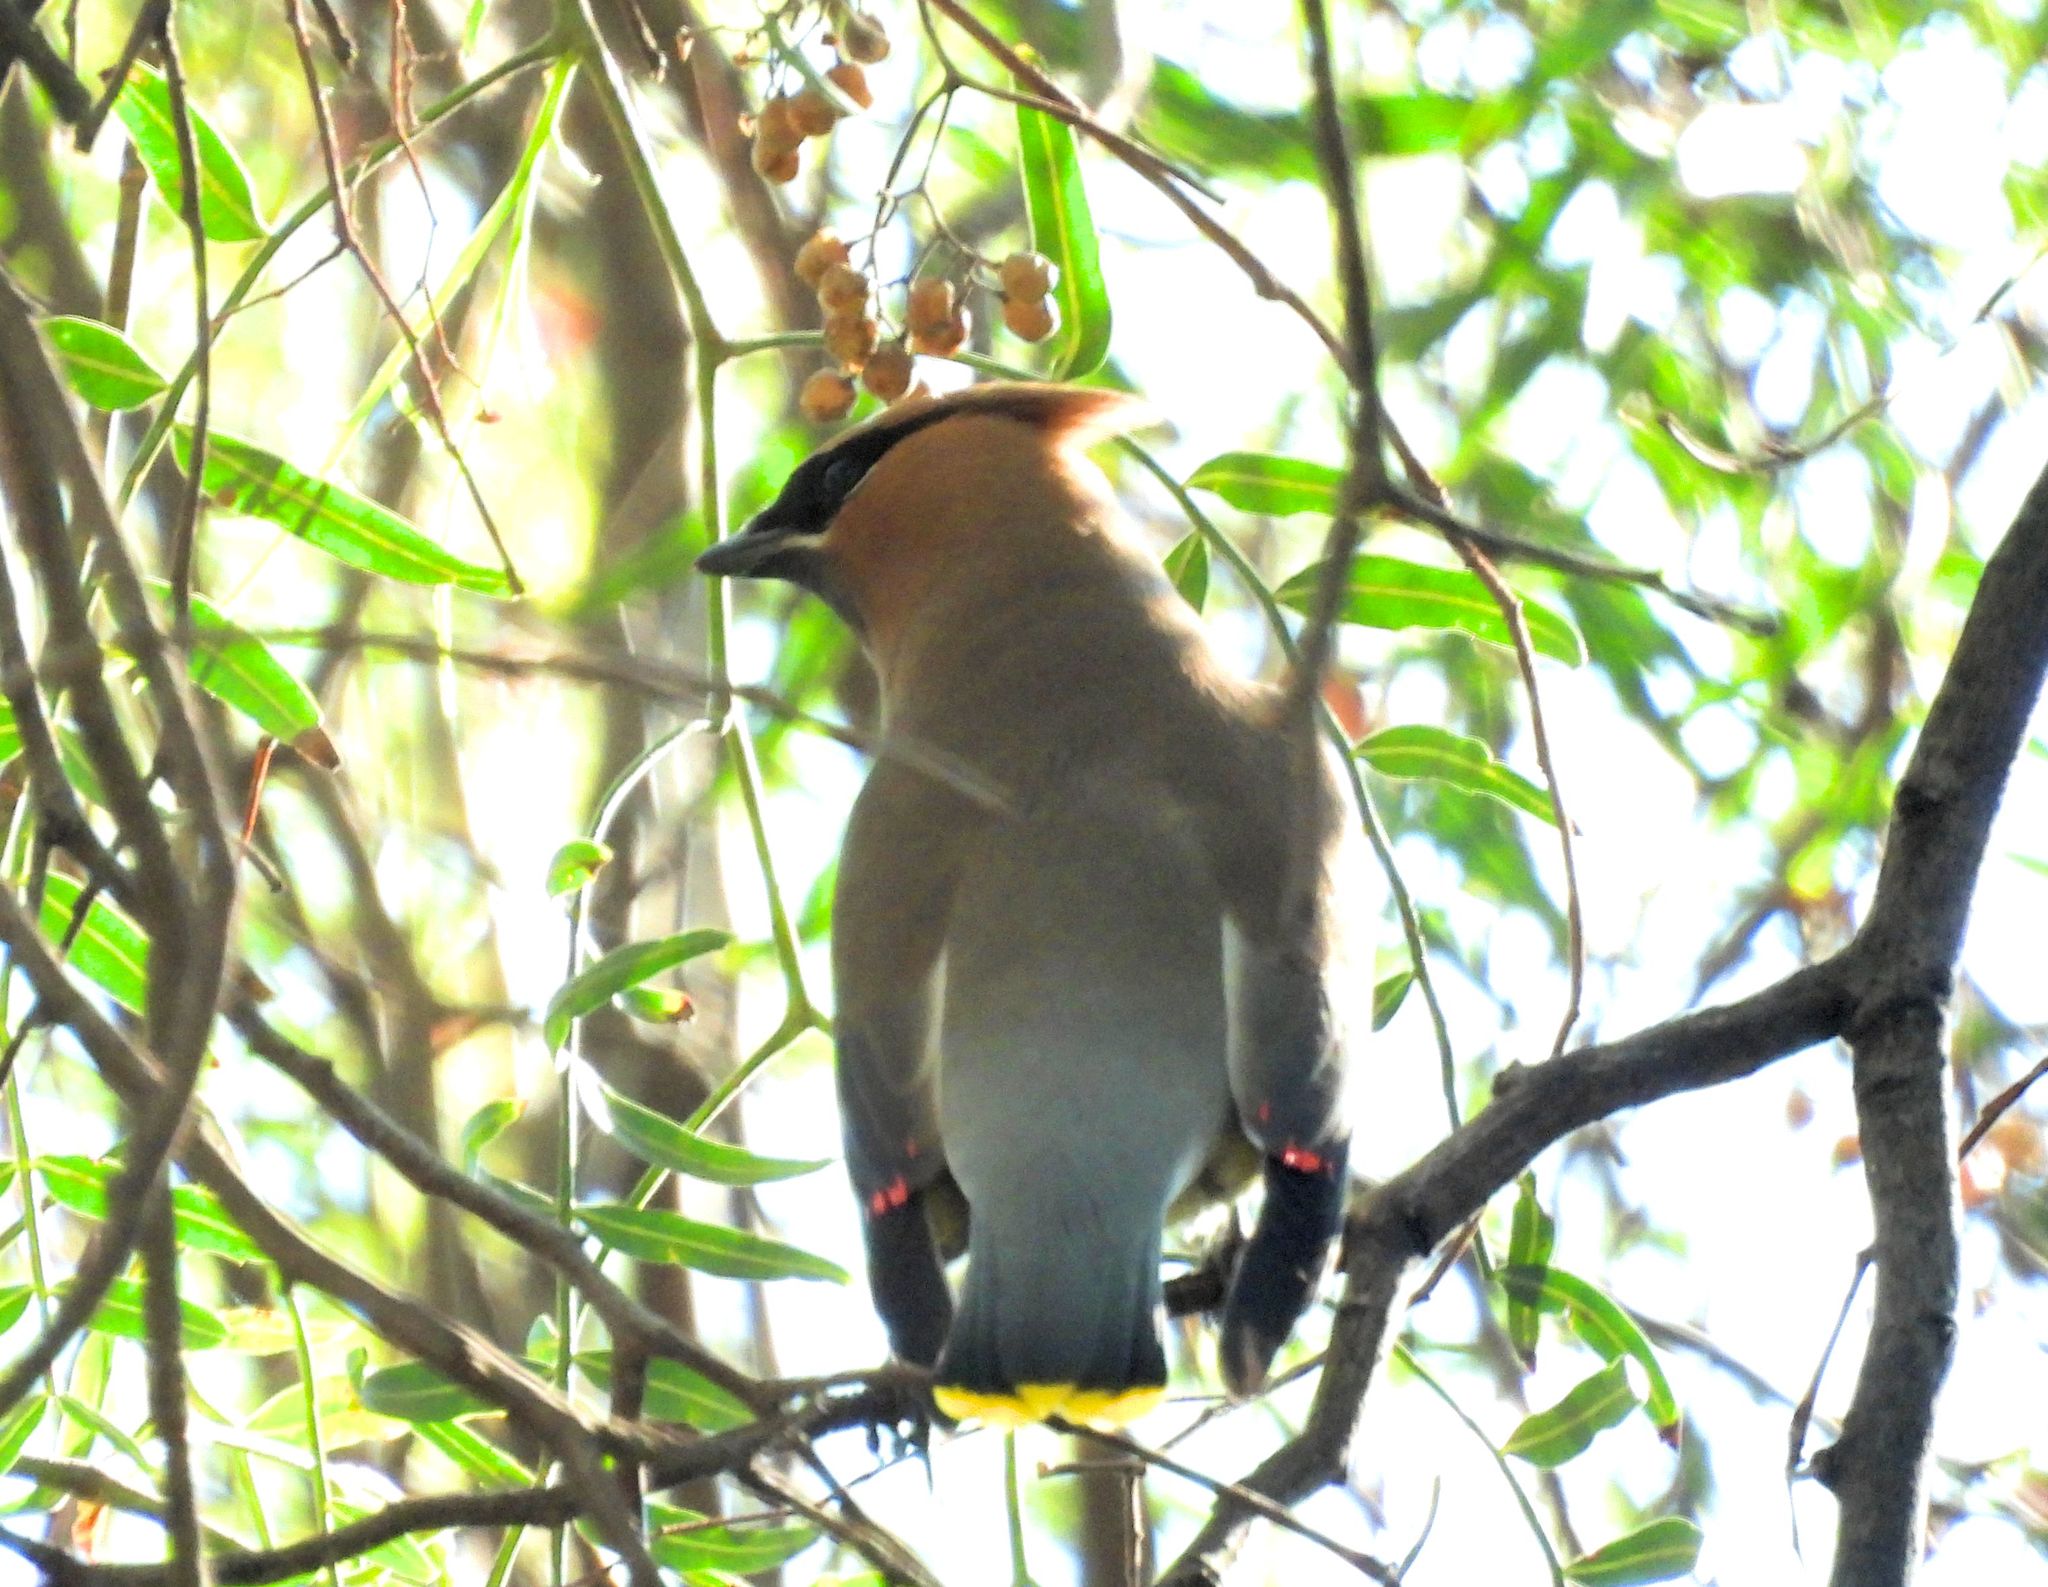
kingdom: Animalia
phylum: Chordata
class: Aves
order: Passeriformes
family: Bombycillidae
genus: Bombycilla
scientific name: Bombycilla cedrorum
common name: Cedar waxwing
